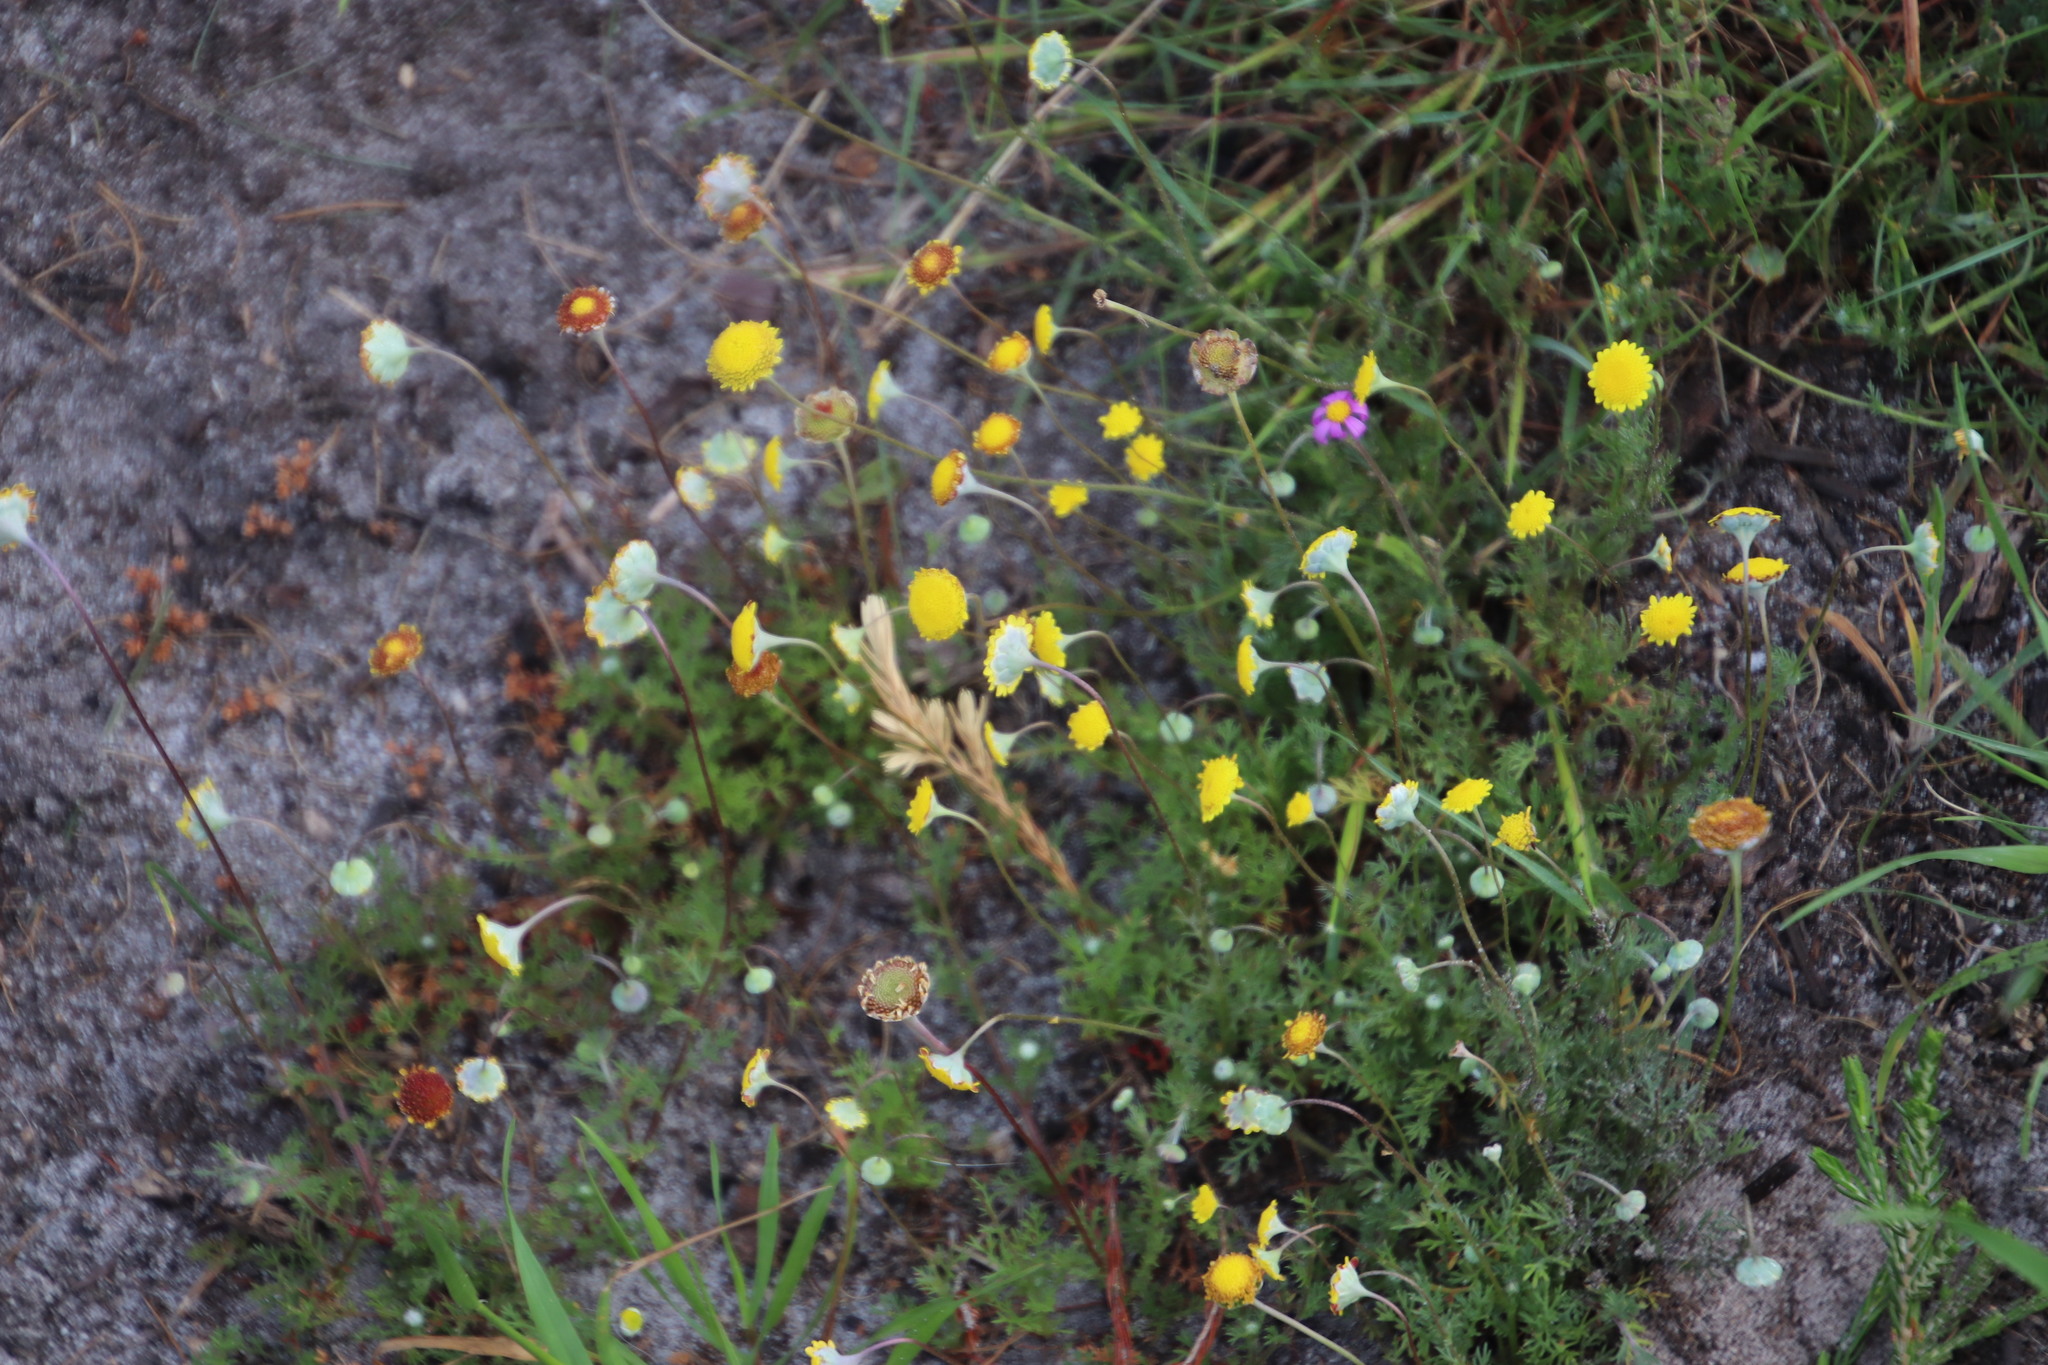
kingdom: Plantae
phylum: Tracheophyta
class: Magnoliopsida
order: Asterales
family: Asteraceae
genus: Cotula
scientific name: Cotula pruinosa
